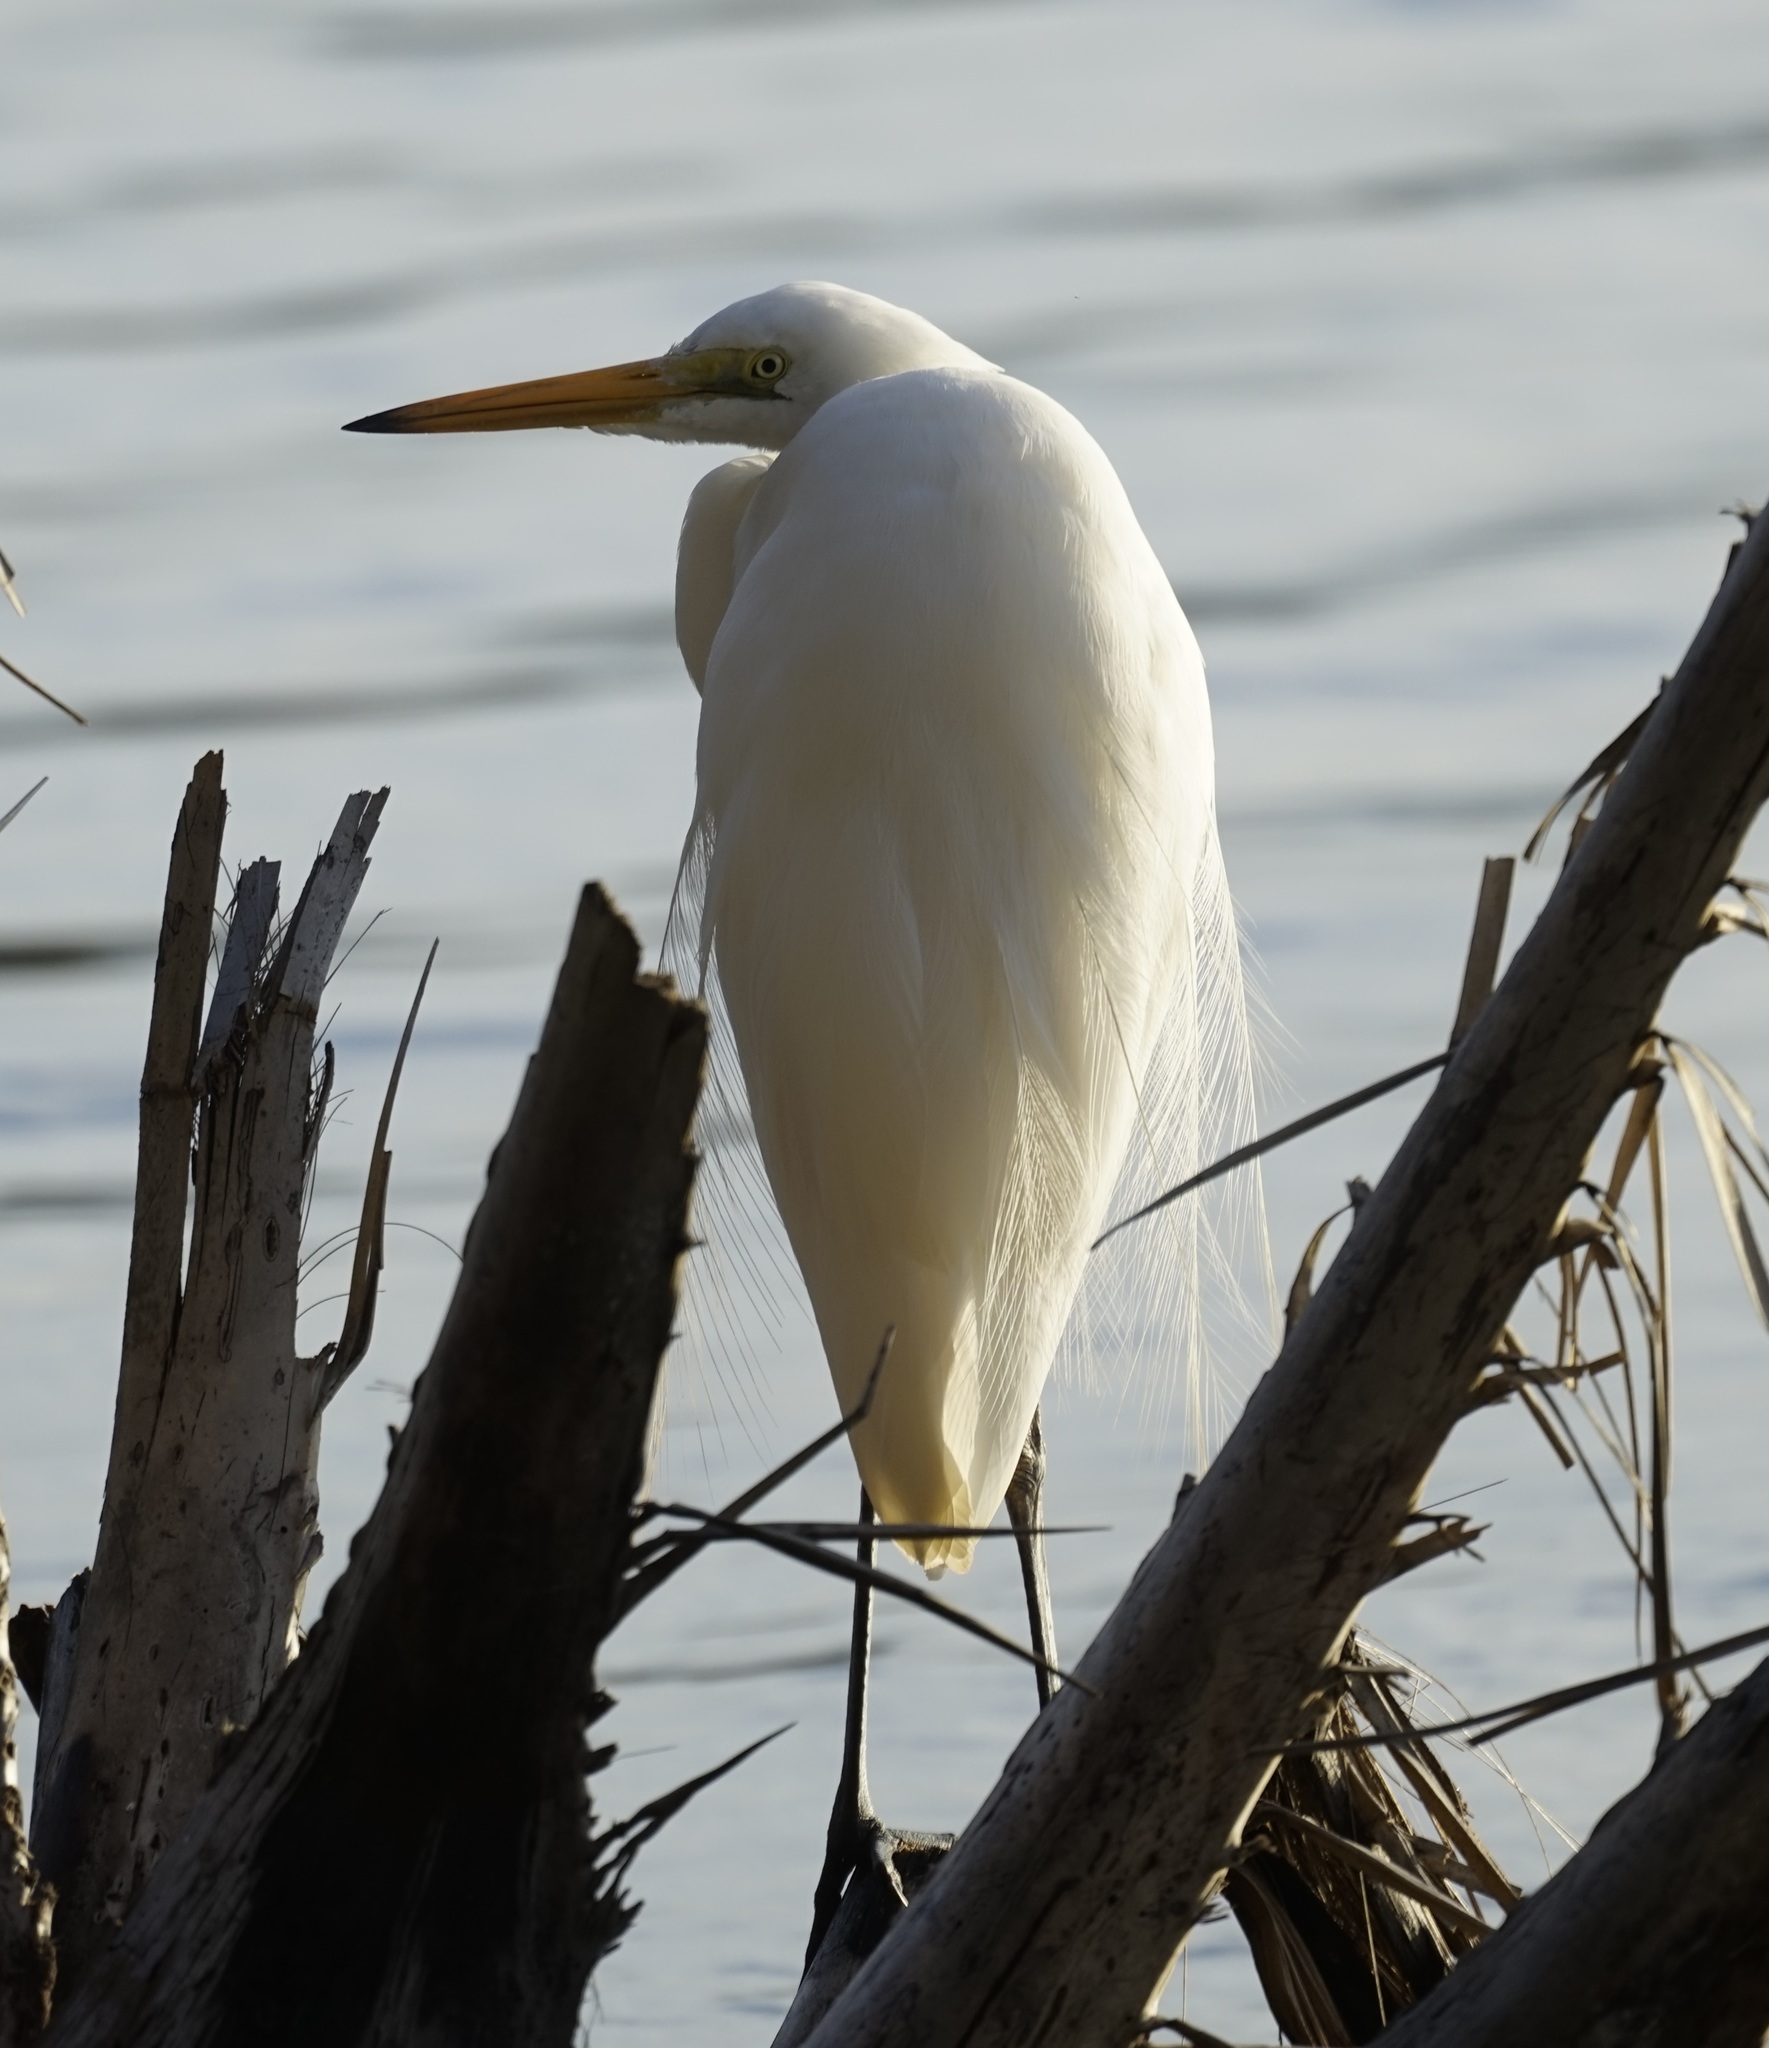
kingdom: Animalia
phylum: Chordata
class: Aves
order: Pelecaniformes
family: Ardeidae
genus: Ardea
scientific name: Ardea modesta
